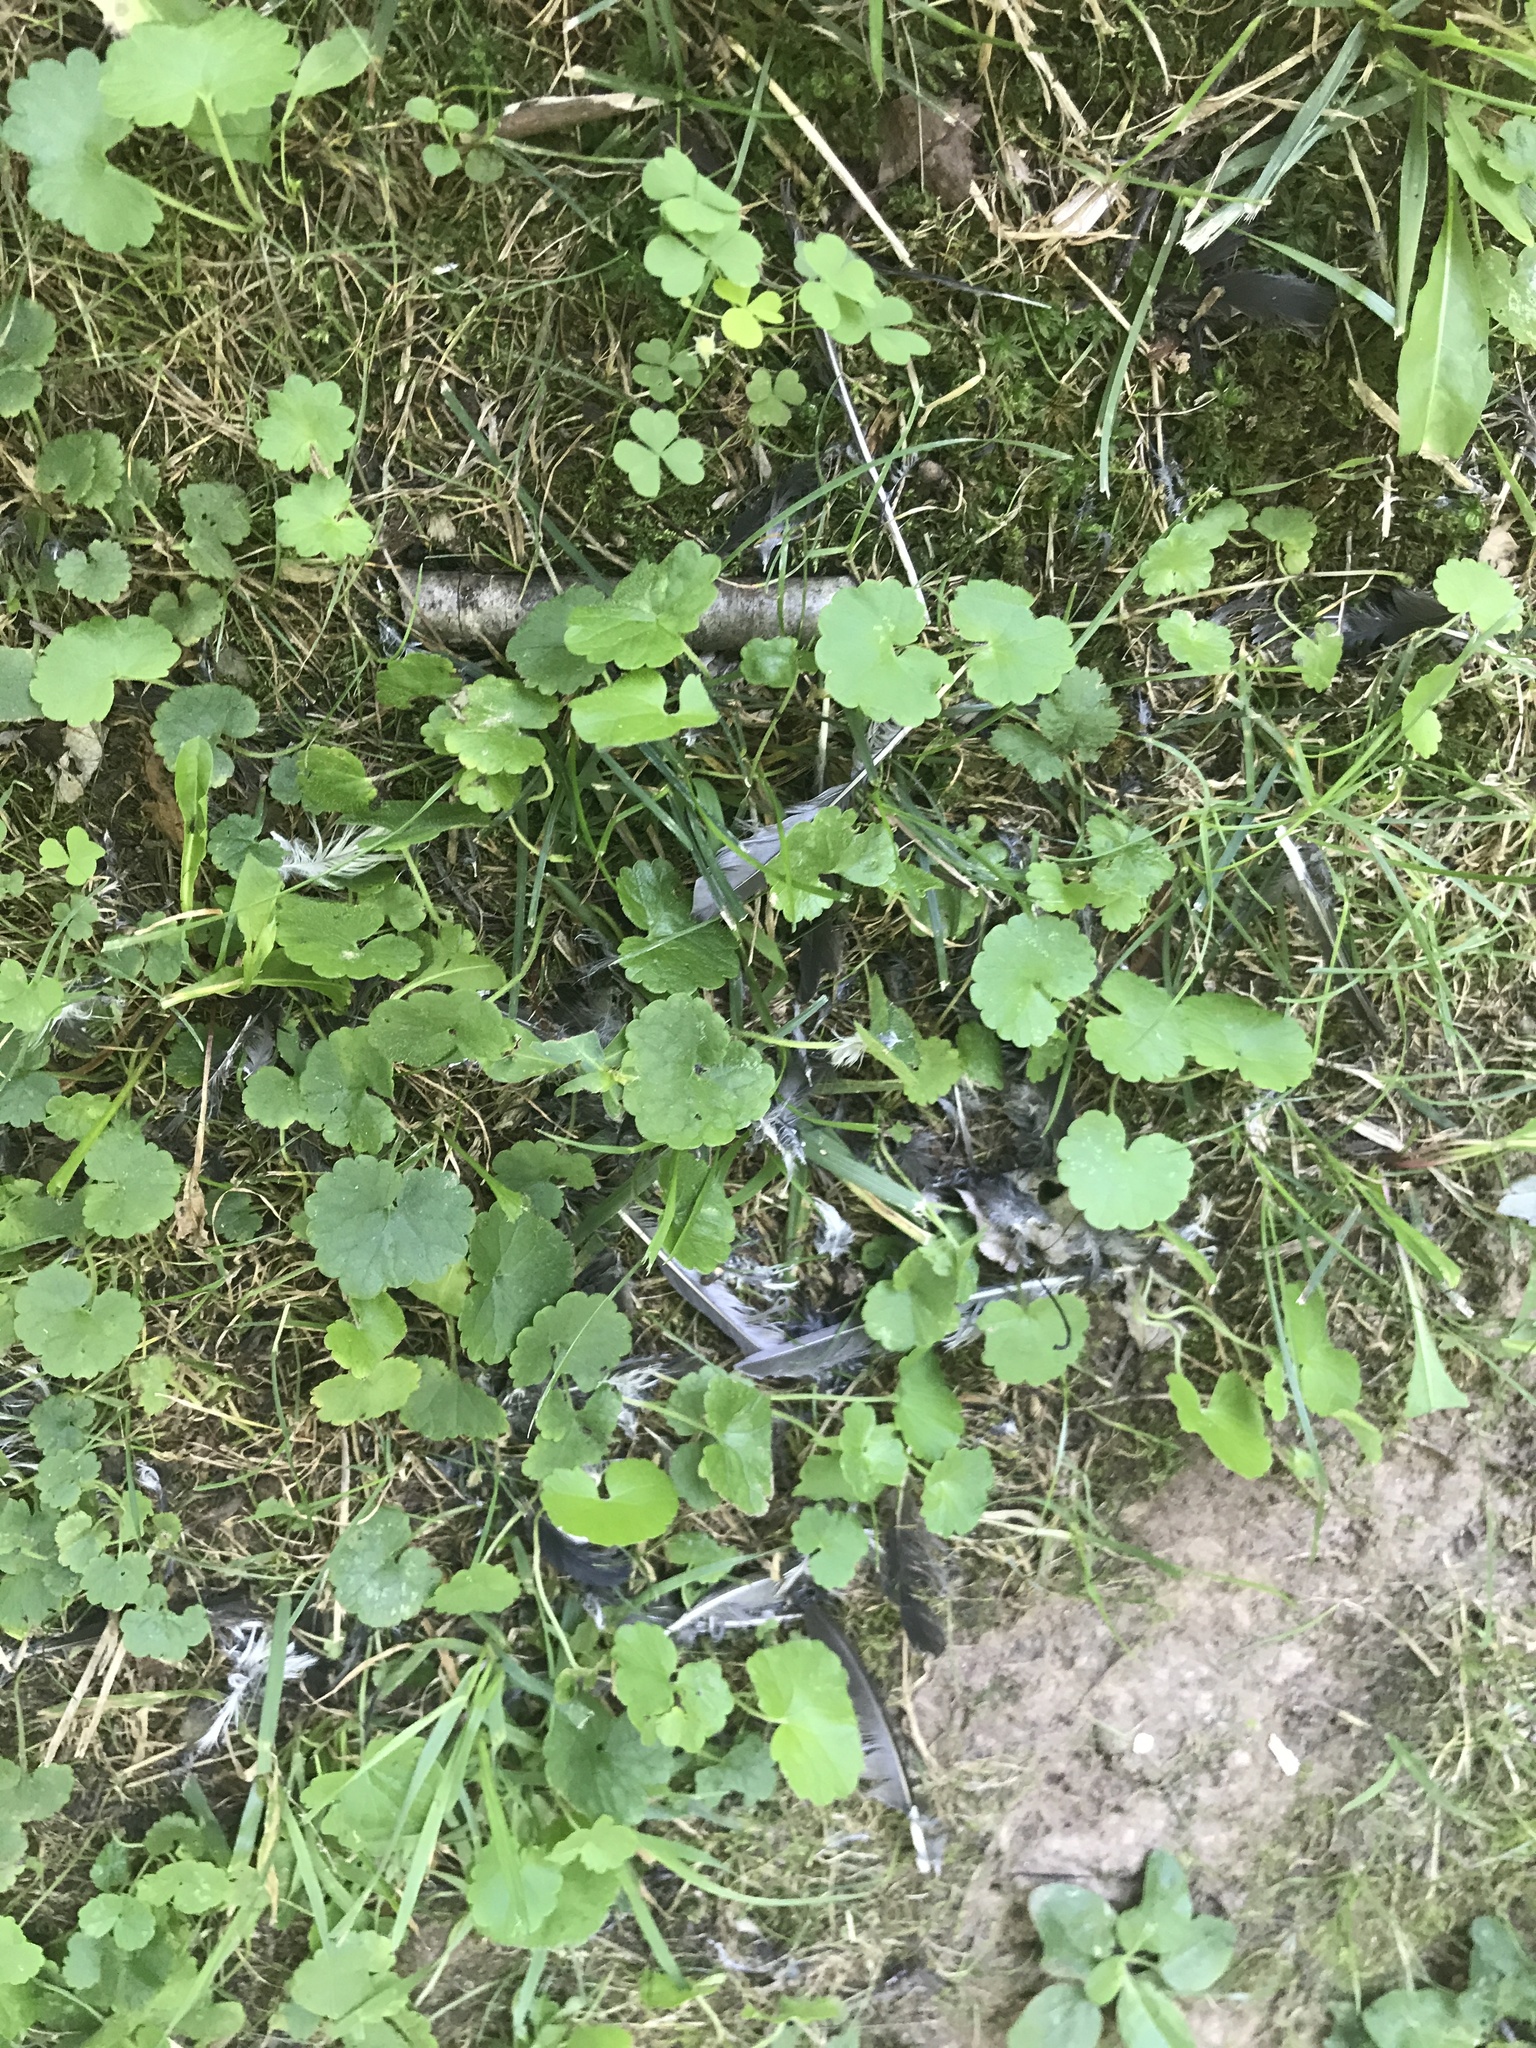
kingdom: Animalia
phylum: Chordata
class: Aves
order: Passeriformes
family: Hirundinidae
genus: Progne
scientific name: Progne subis
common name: Purple martin
